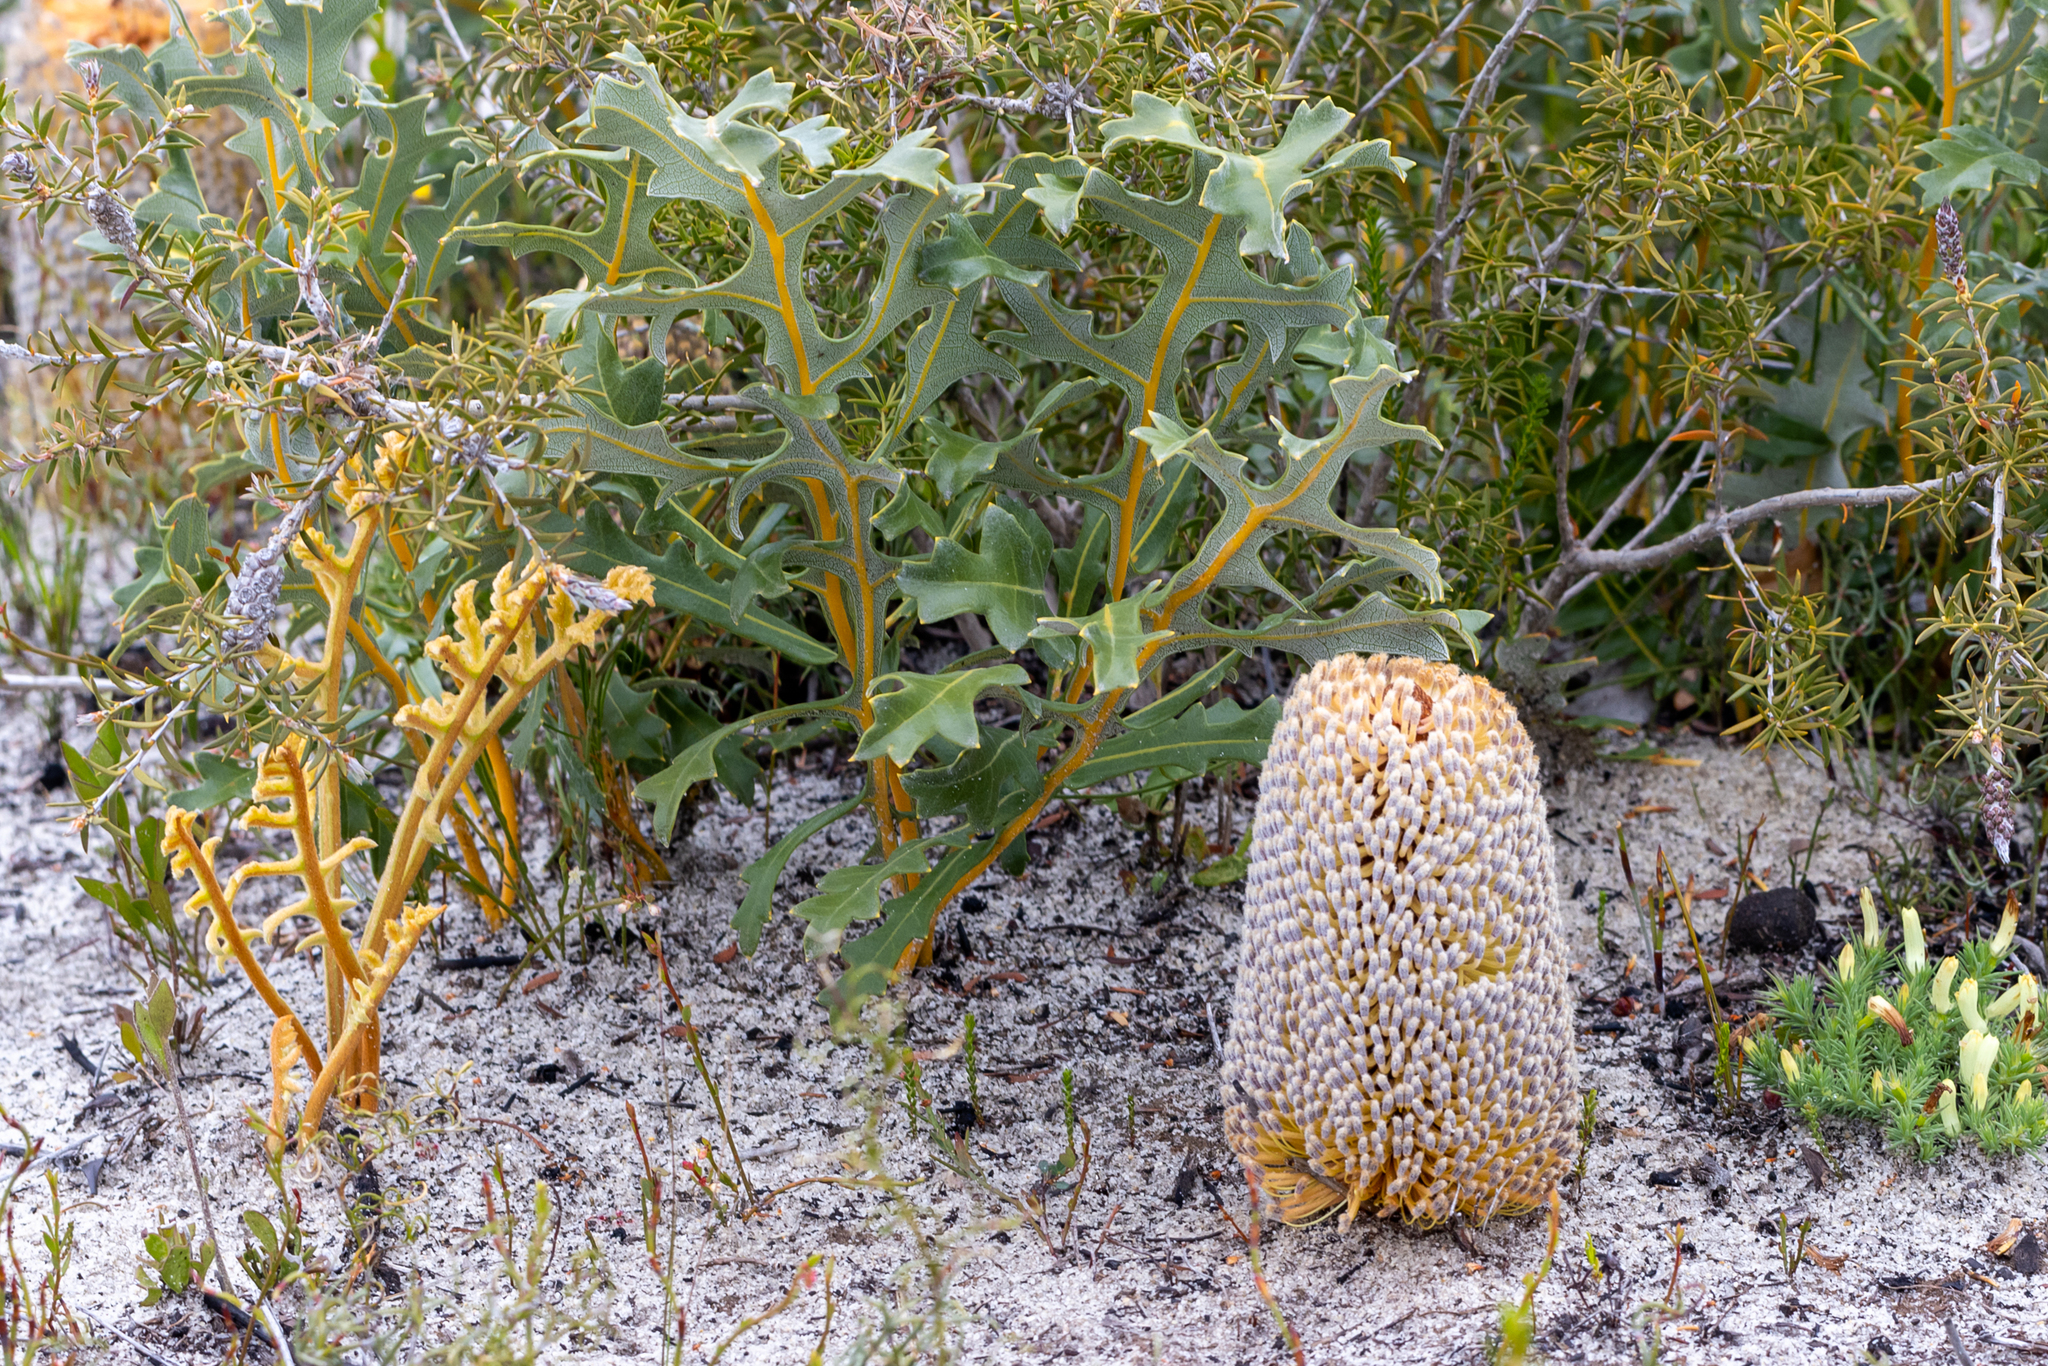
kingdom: Plantae
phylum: Tracheophyta
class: Magnoliopsida
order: Proteales
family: Proteaceae
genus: Banksia
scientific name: Banksia repens
